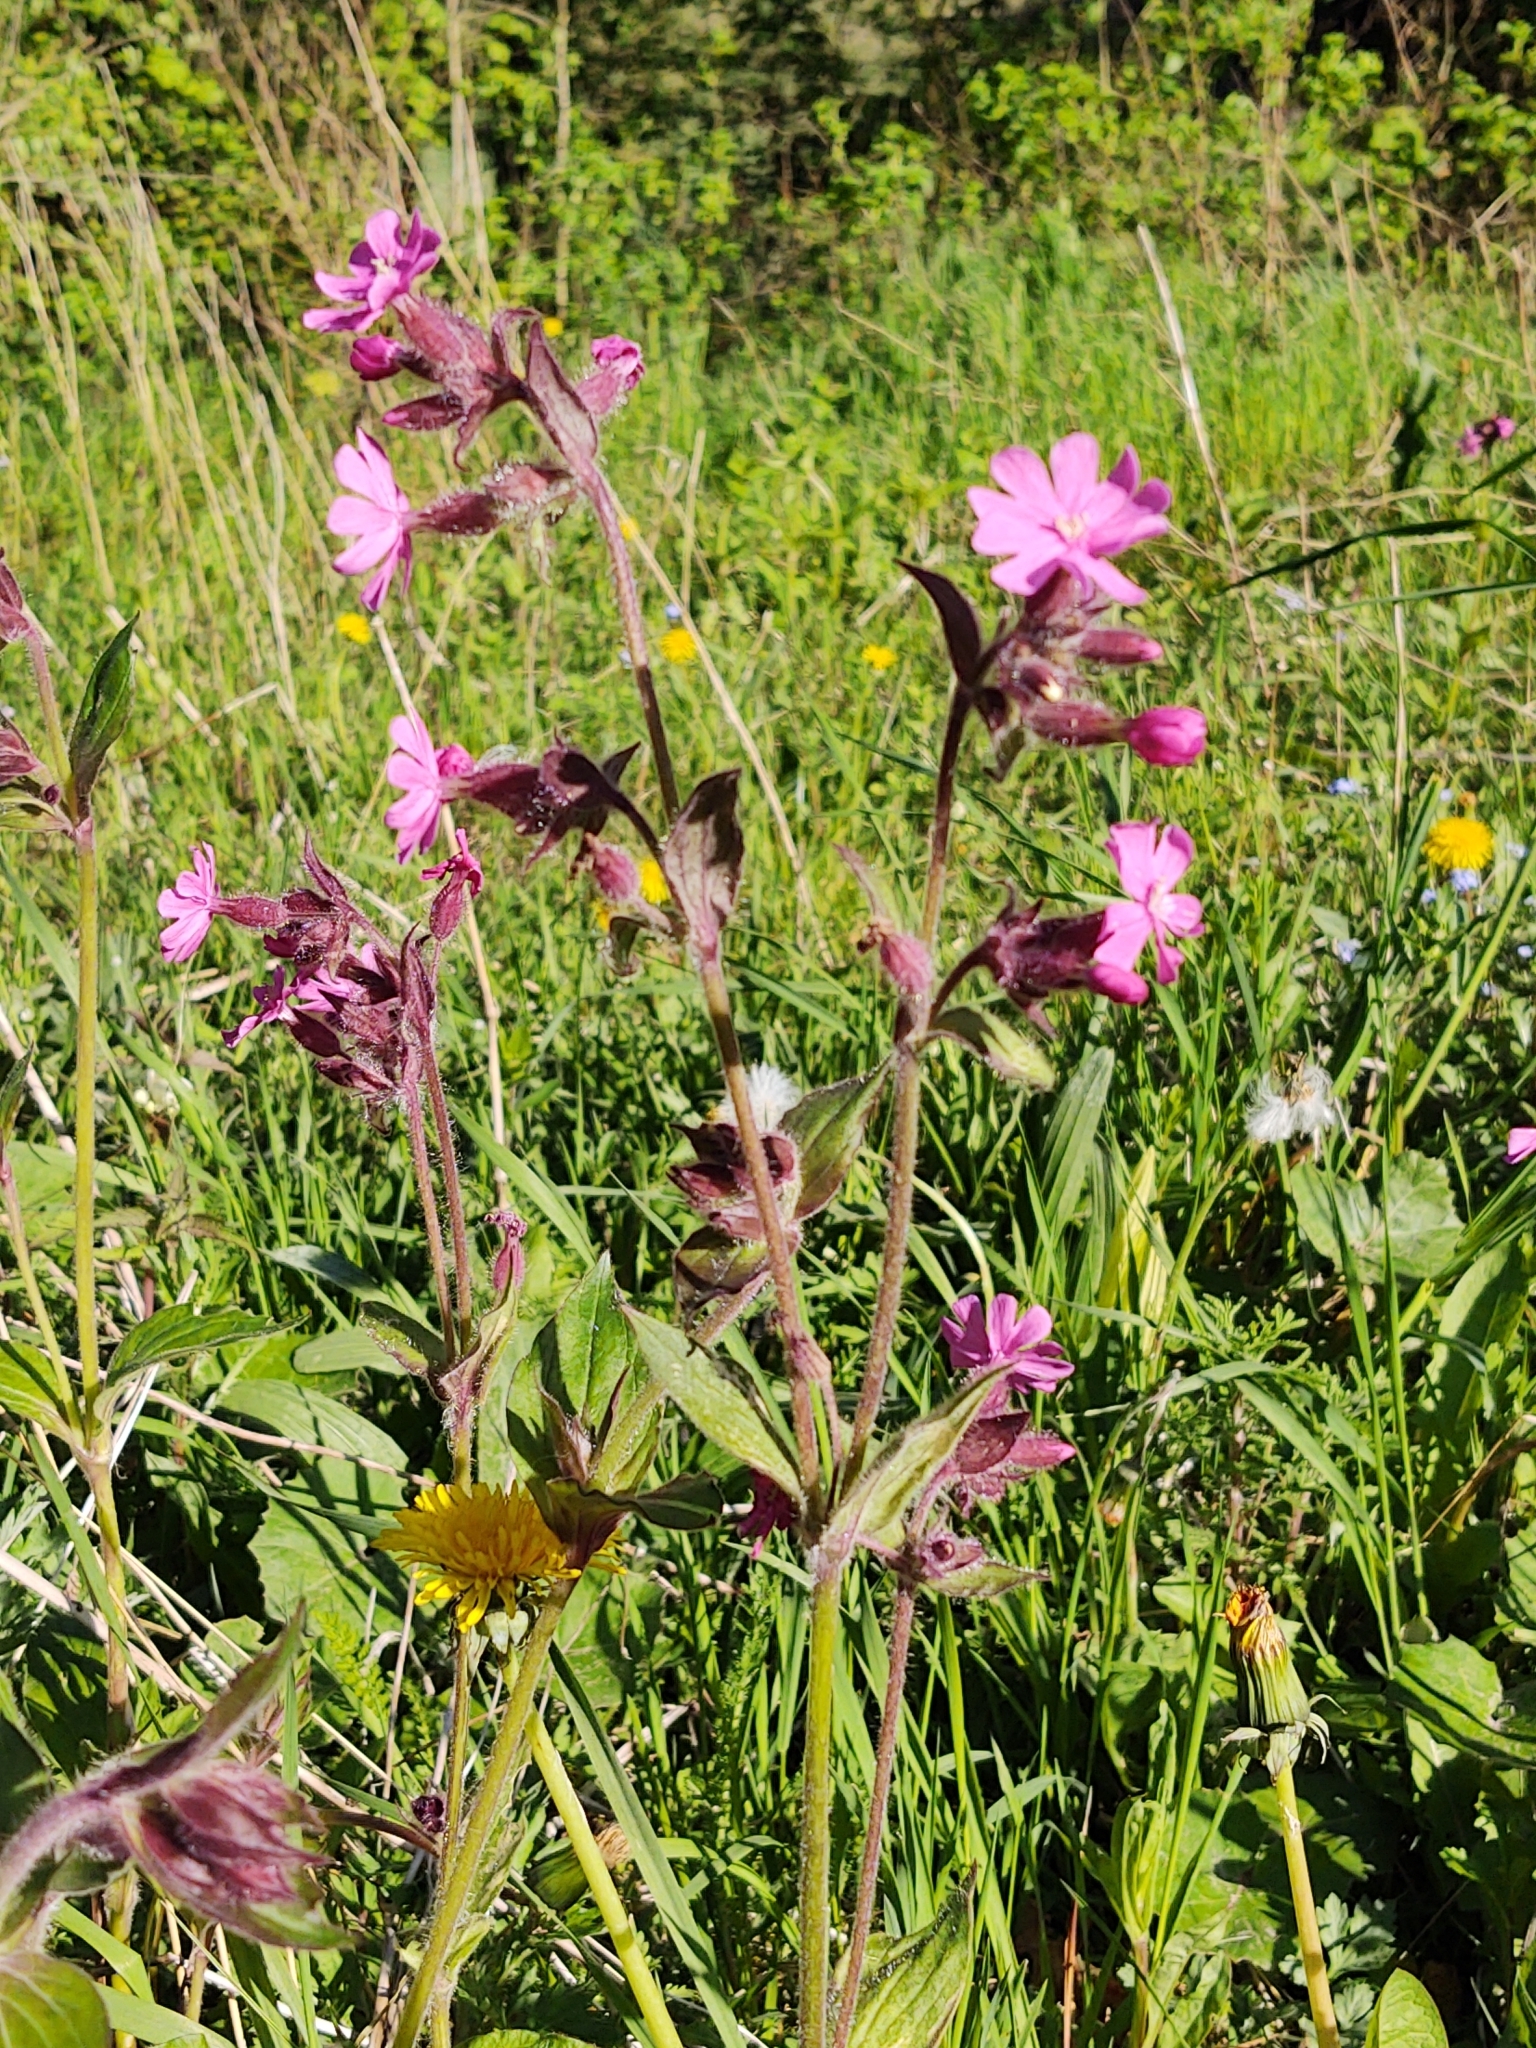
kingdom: Plantae
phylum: Tracheophyta
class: Magnoliopsida
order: Caryophyllales
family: Caryophyllaceae
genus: Silene
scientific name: Silene dioica
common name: Red campion
